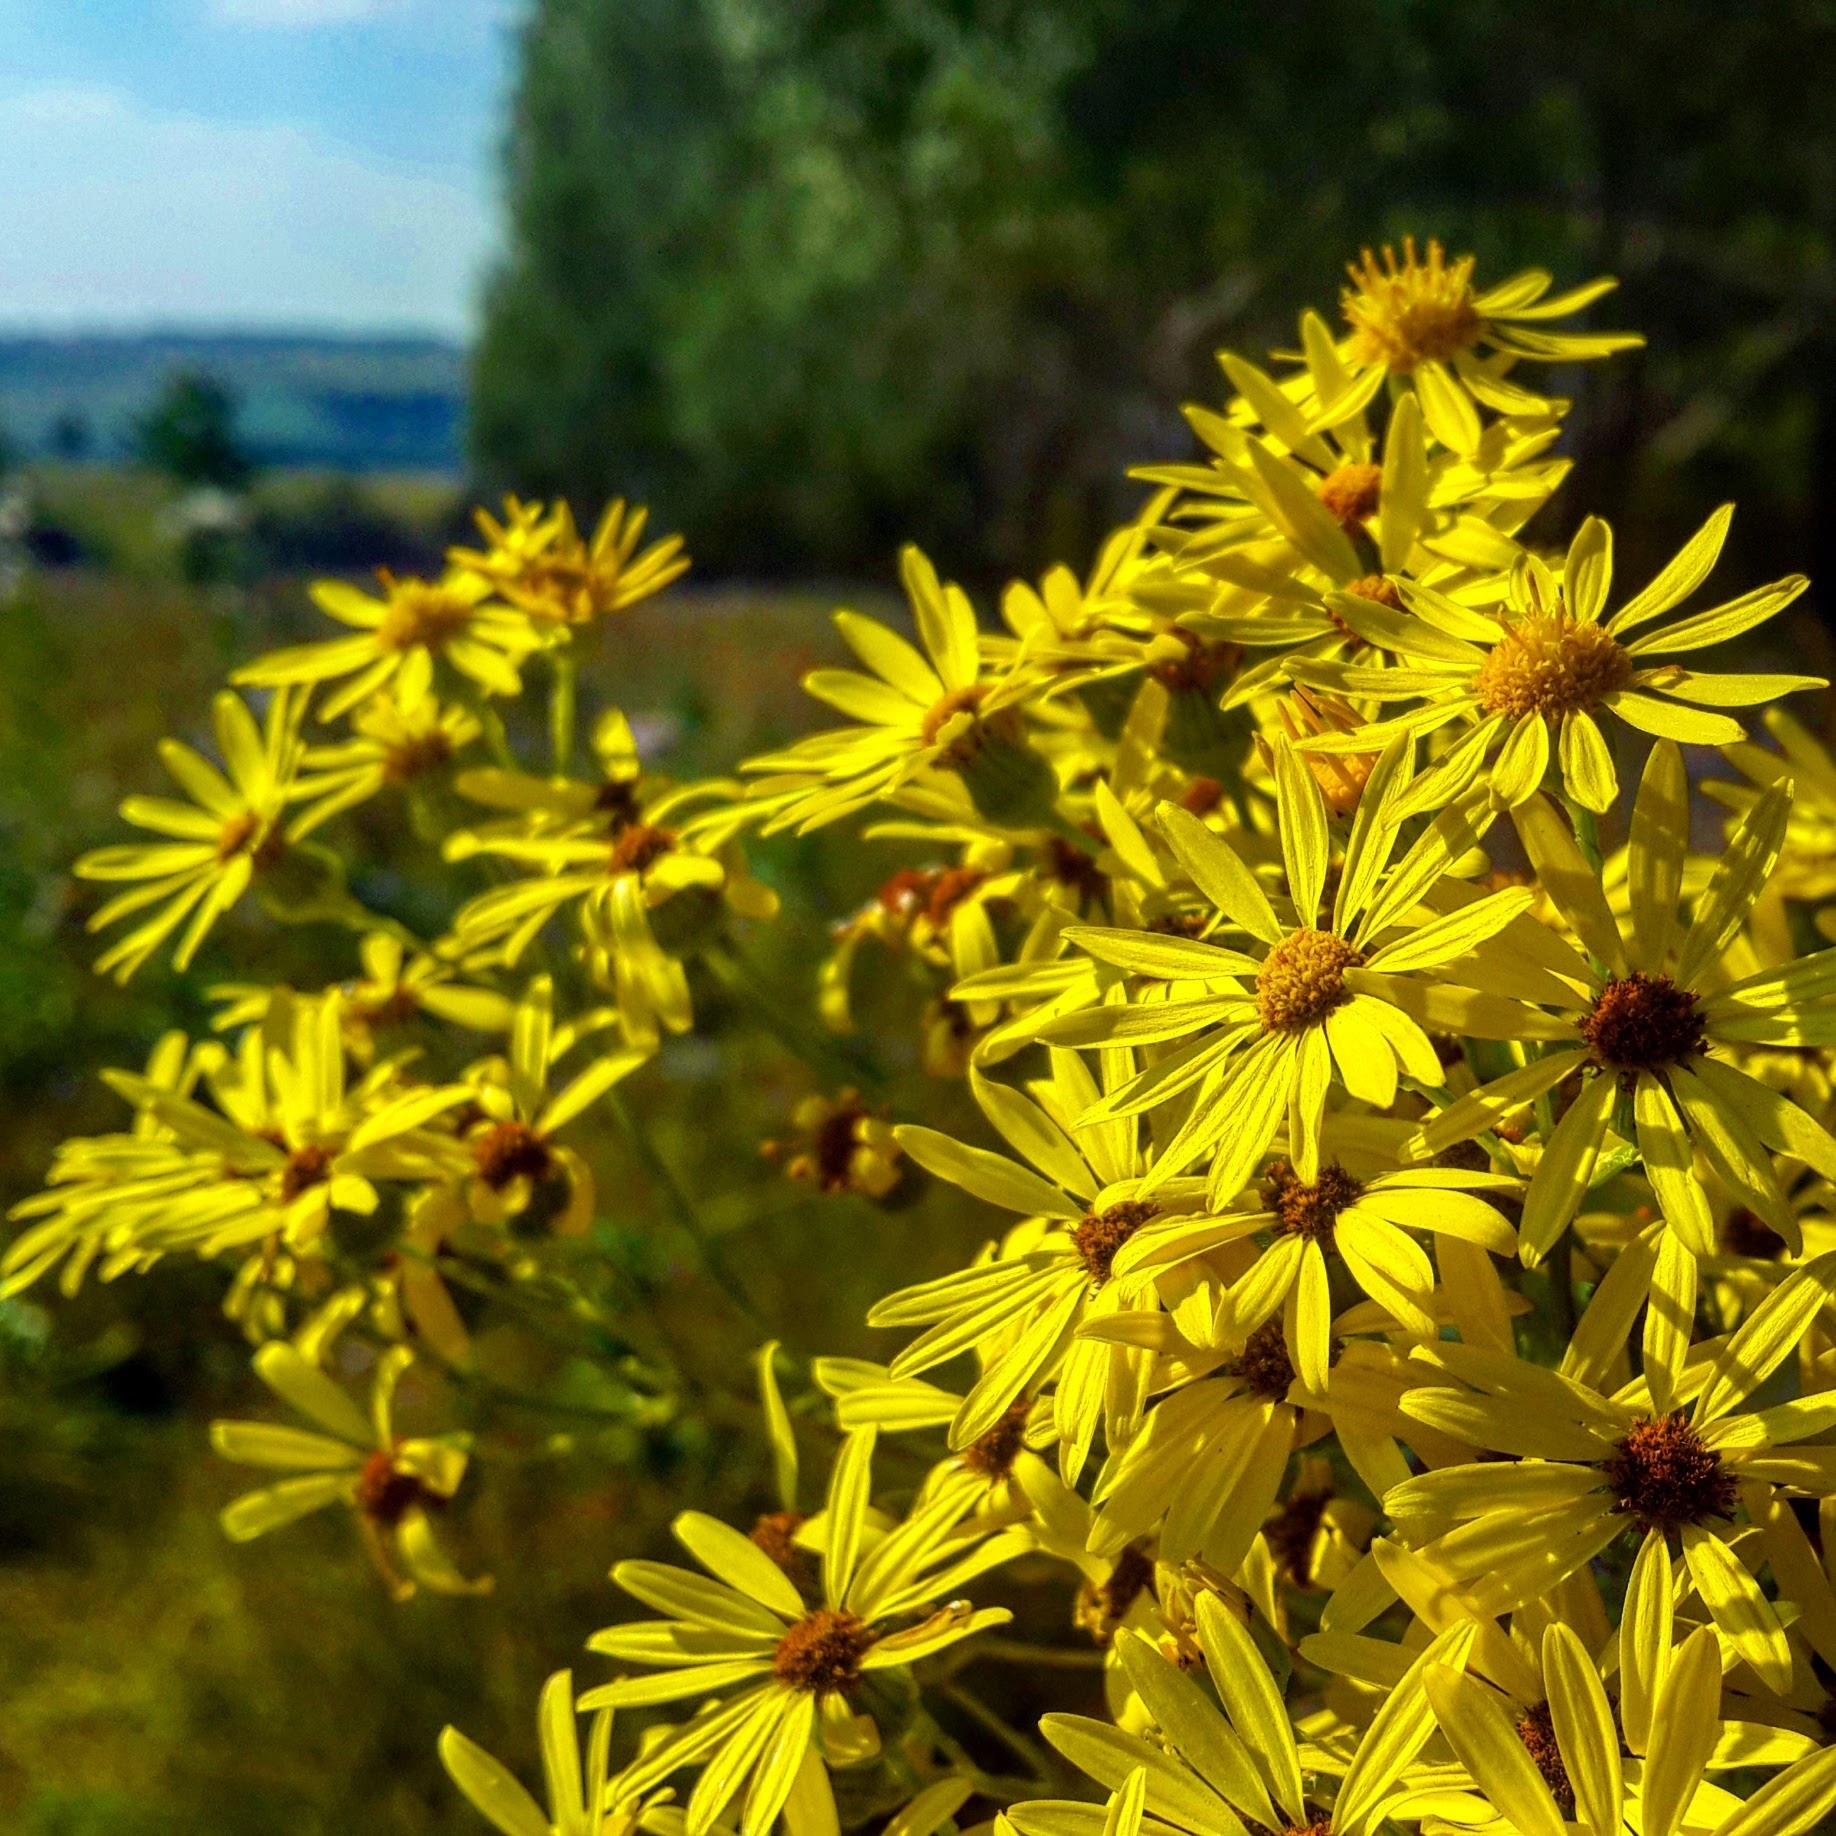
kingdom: Plantae
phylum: Tracheophyta
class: Magnoliopsida
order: Asterales
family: Asteraceae
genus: Jacobaea
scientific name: Jacobaea vulgaris
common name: Stinking willie
